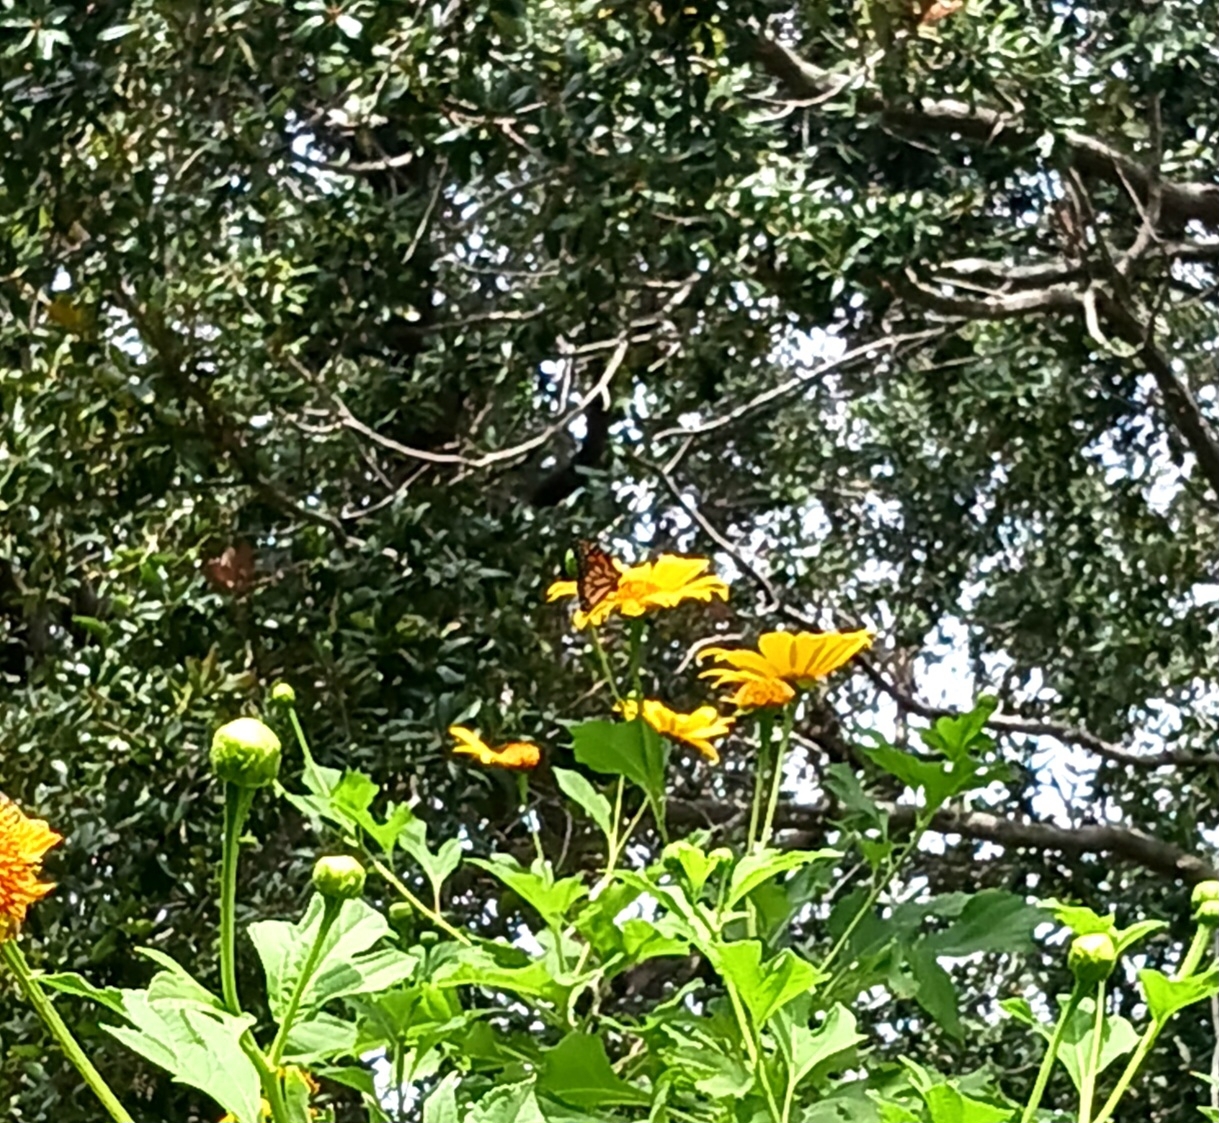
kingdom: Animalia
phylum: Arthropoda
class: Insecta
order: Lepidoptera
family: Nymphalidae
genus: Danaus
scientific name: Danaus plexippus
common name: Monarch
